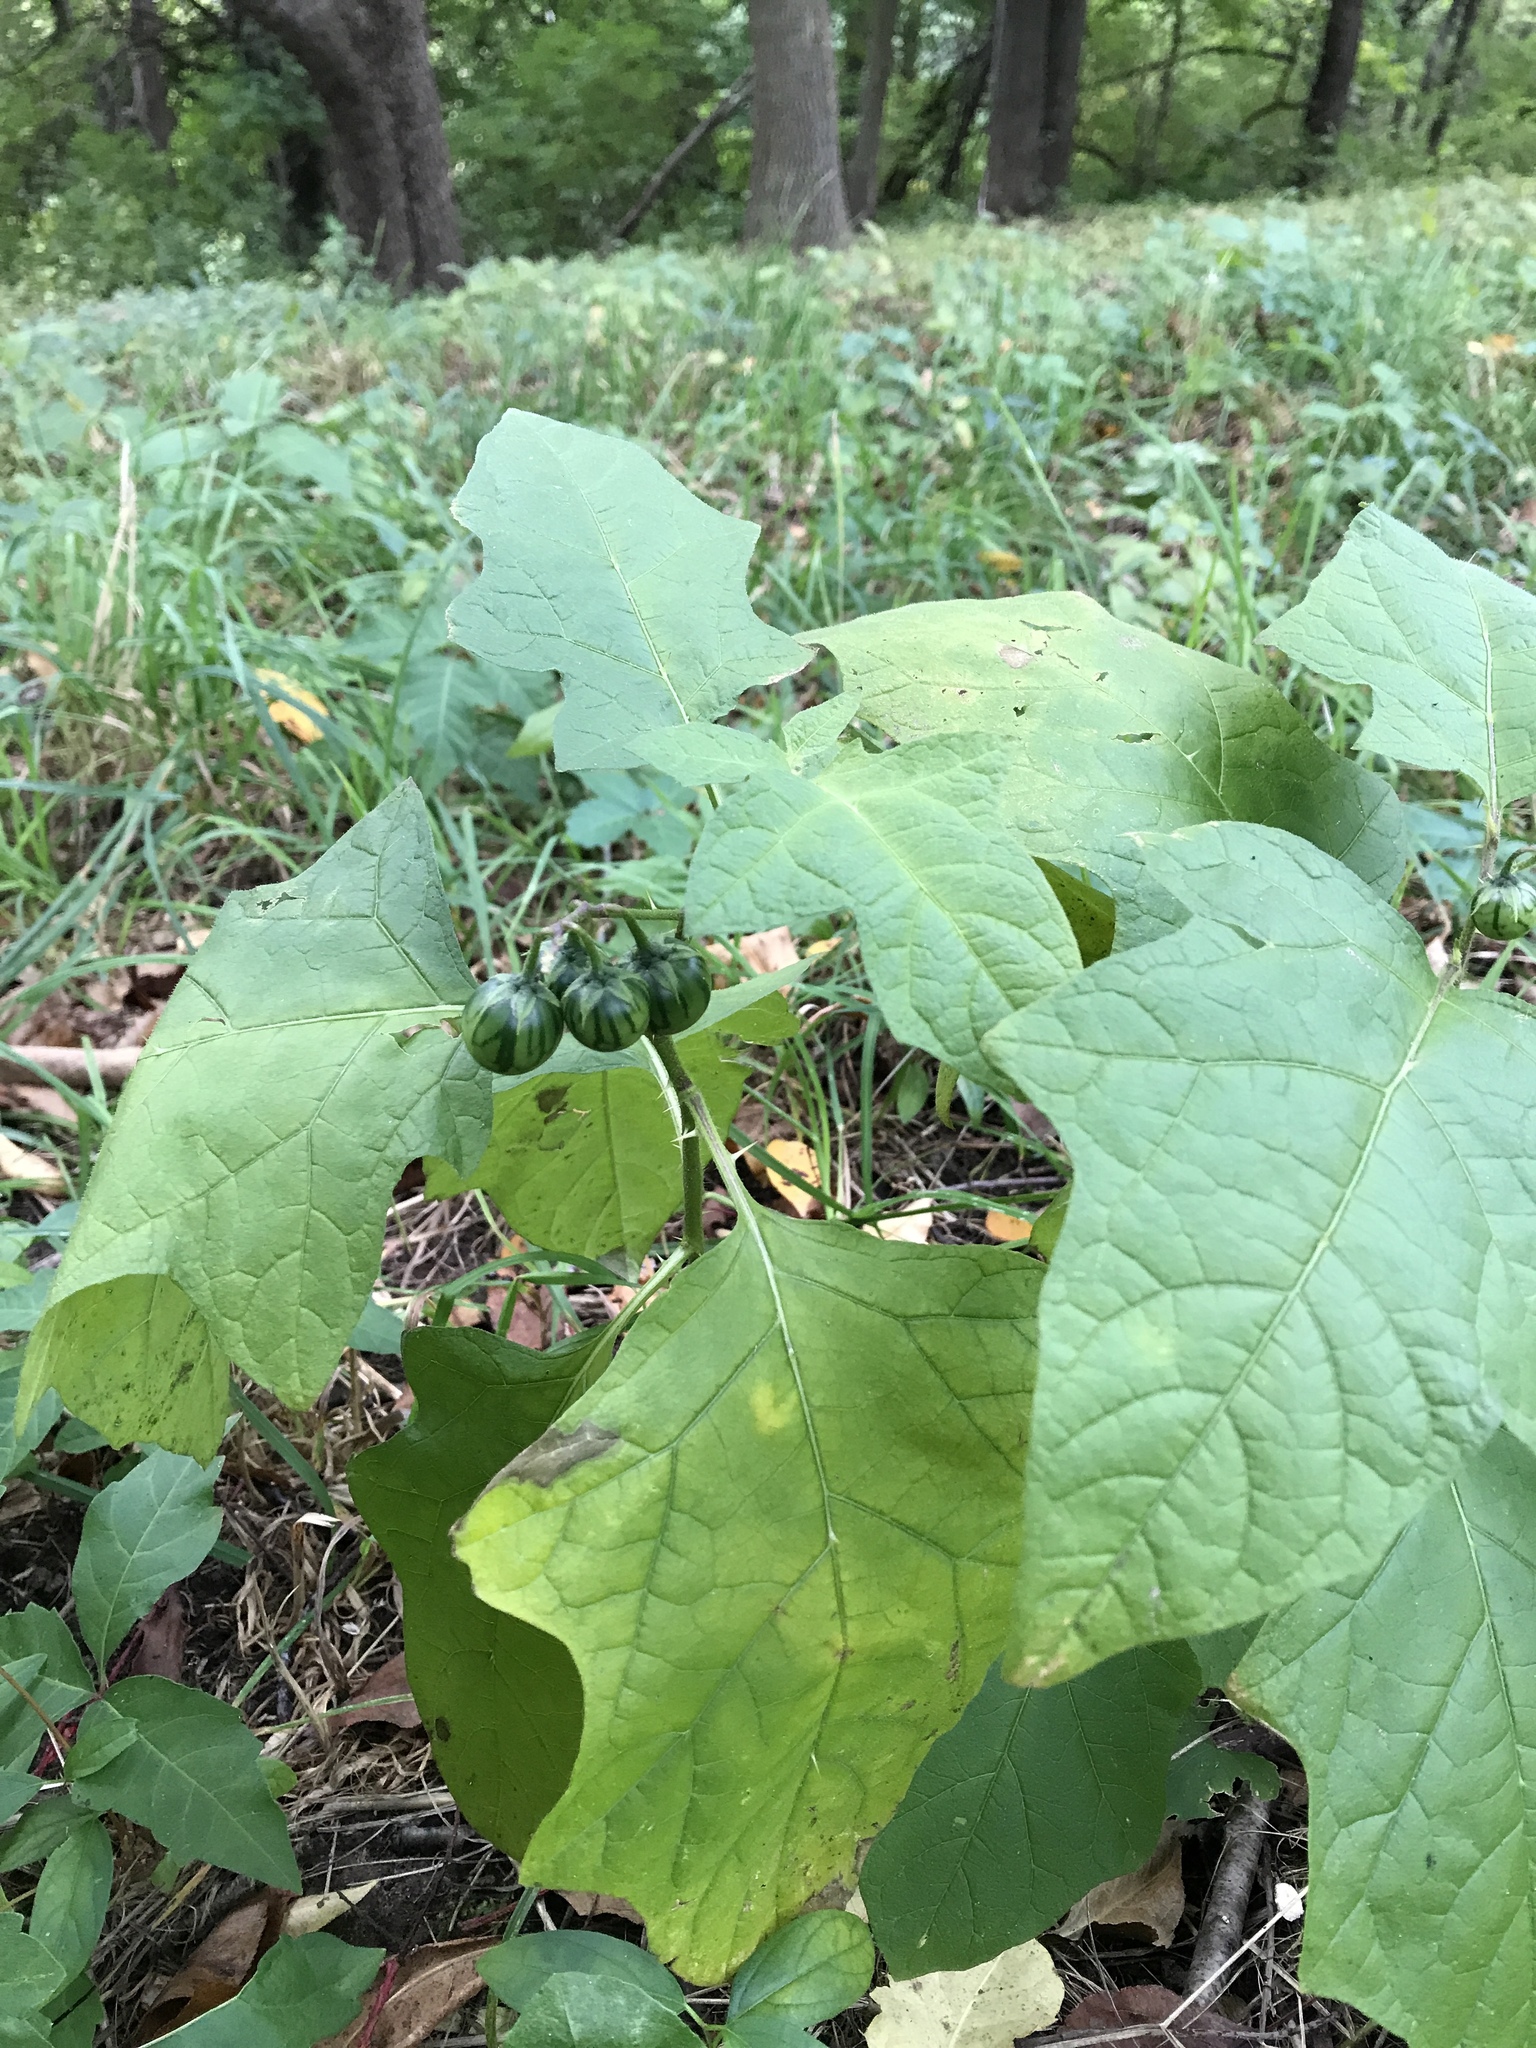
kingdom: Plantae
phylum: Tracheophyta
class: Magnoliopsida
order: Solanales
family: Solanaceae
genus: Solanum
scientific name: Solanum carolinense
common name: Horse-nettle
